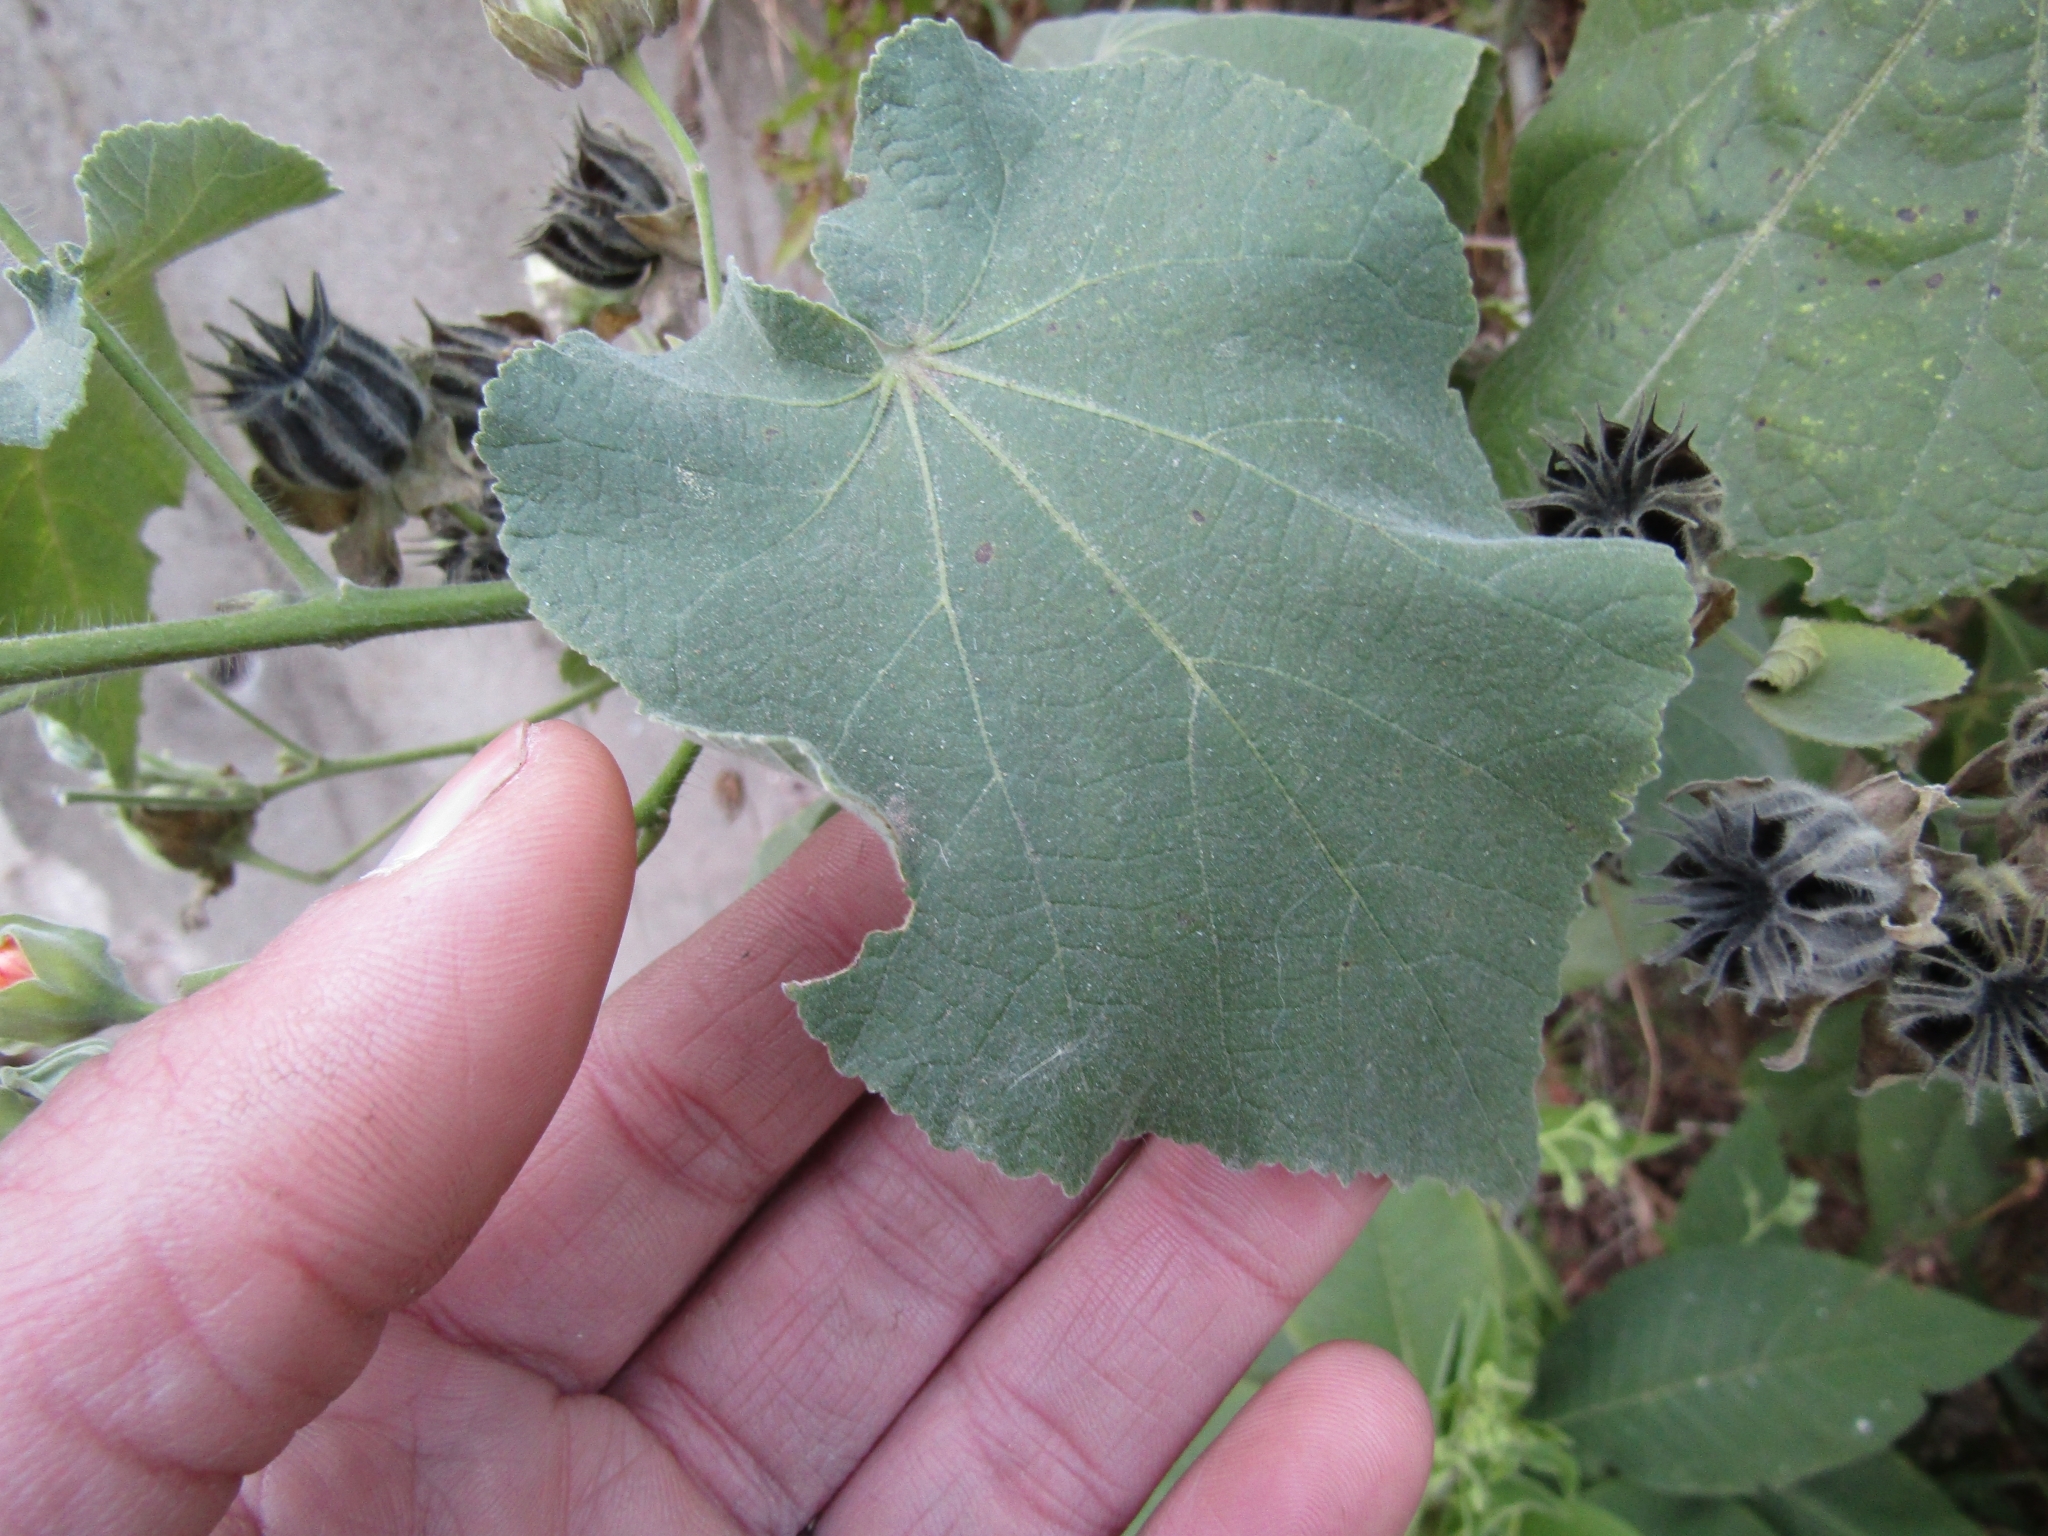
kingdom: Plantae
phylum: Tracheophyta
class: Magnoliopsida
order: Malvales
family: Malvaceae
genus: Abutilon
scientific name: Abutilon grandifolium
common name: Hairy abutilon
